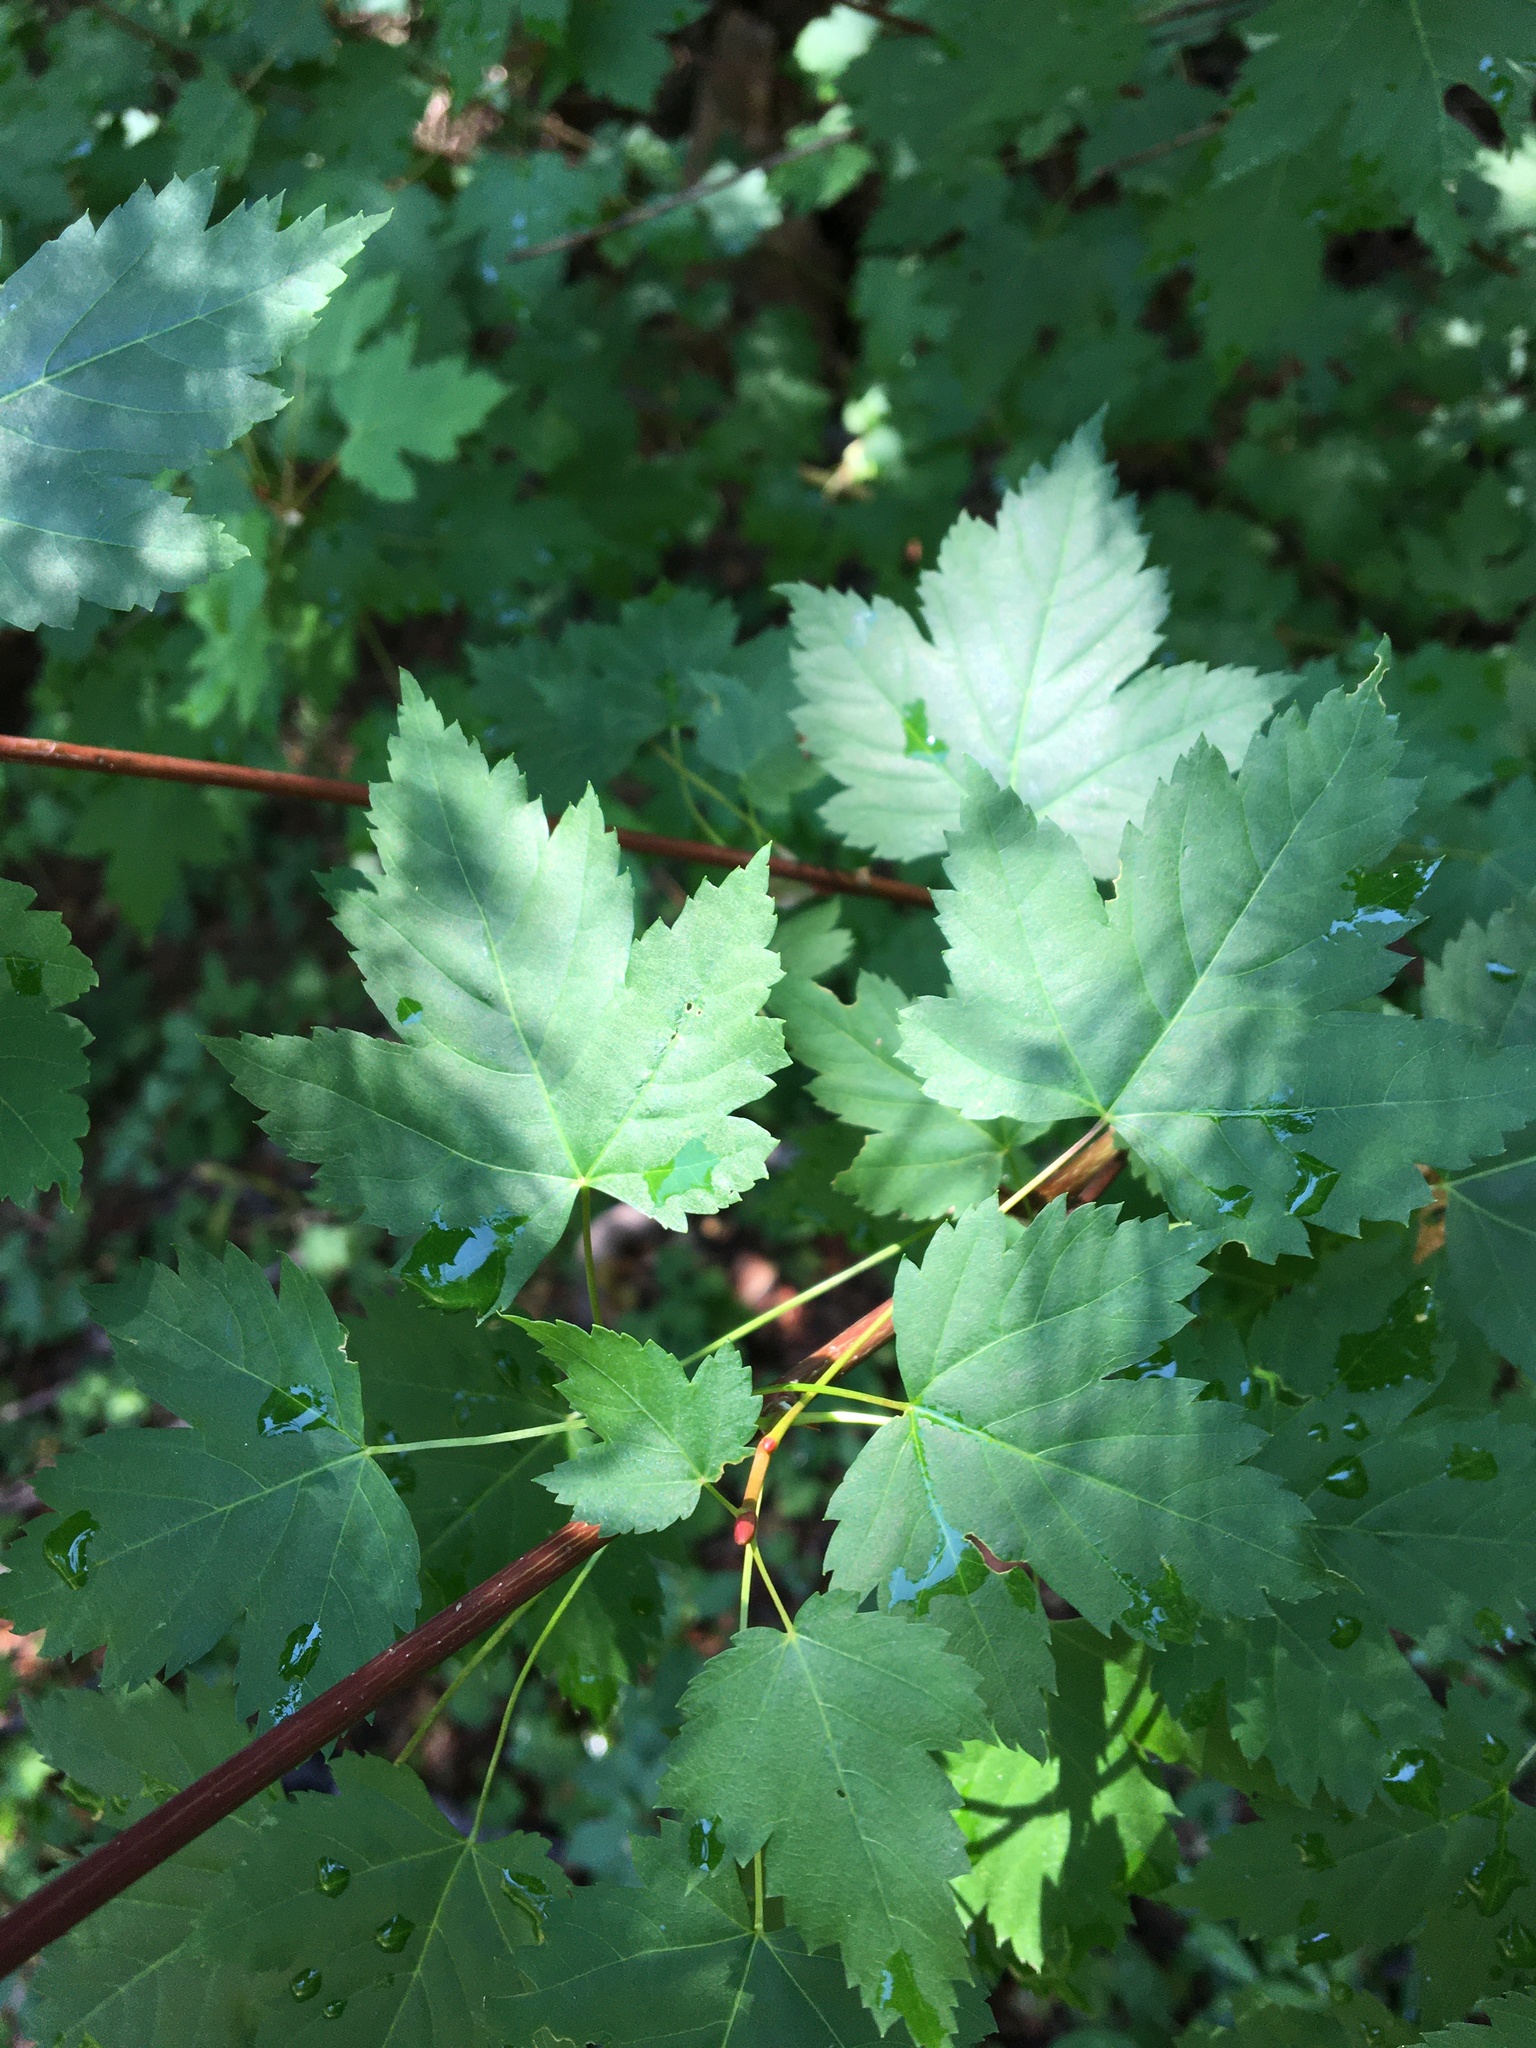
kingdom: Plantae
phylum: Tracheophyta
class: Magnoliopsida
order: Sapindales
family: Sapindaceae
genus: Acer
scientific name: Acer glabrum
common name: Rocky mountain maple
